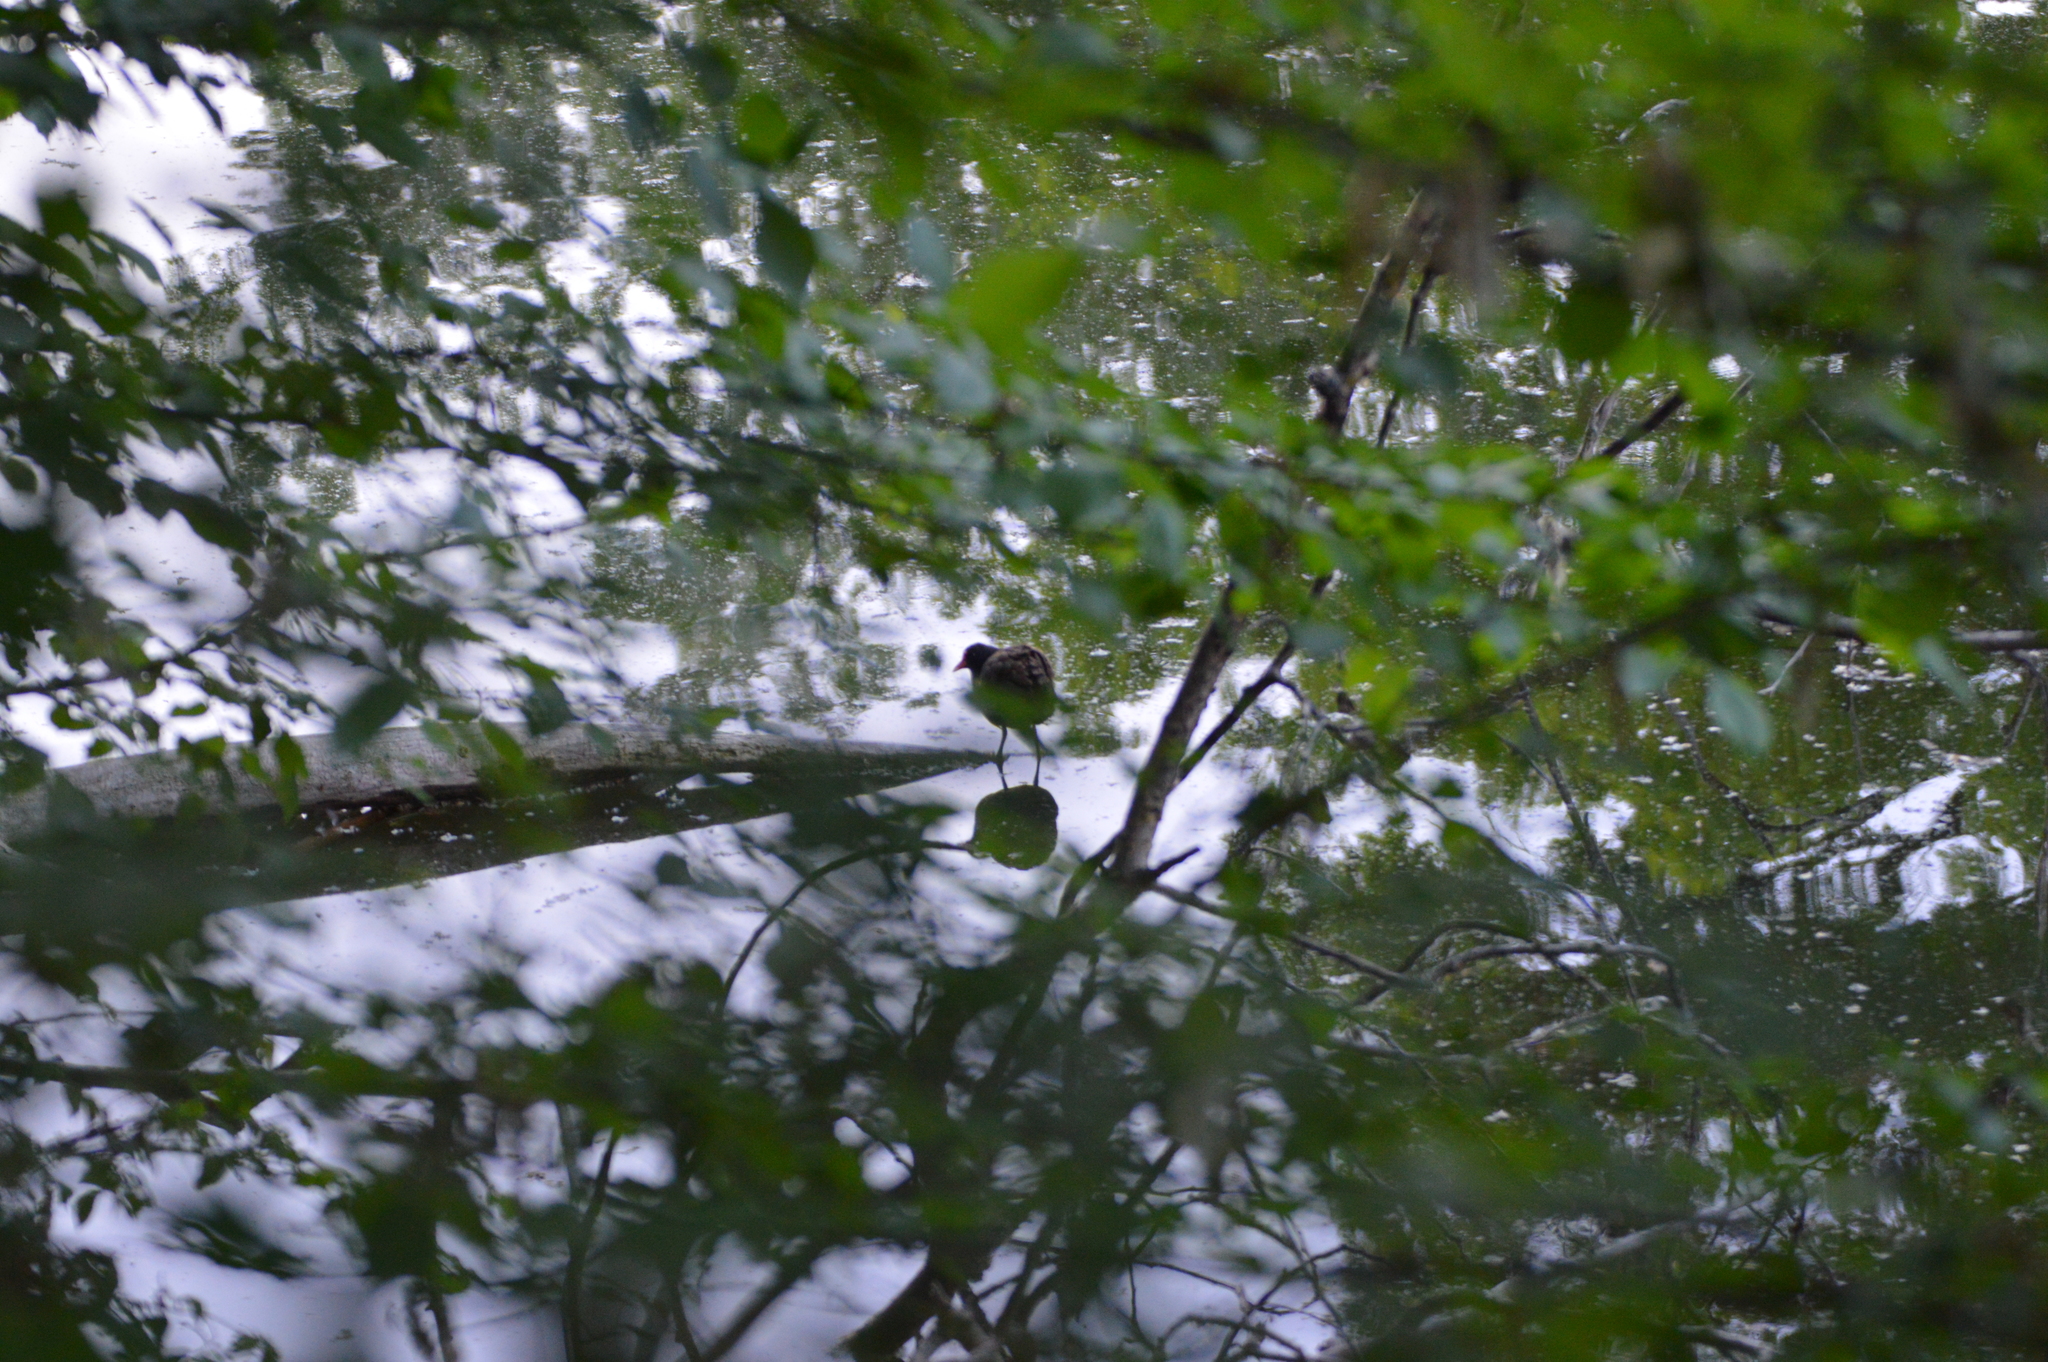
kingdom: Animalia
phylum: Chordata
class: Aves
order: Gruiformes
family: Rallidae
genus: Gallinula
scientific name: Gallinula chloropus
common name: Common moorhen
